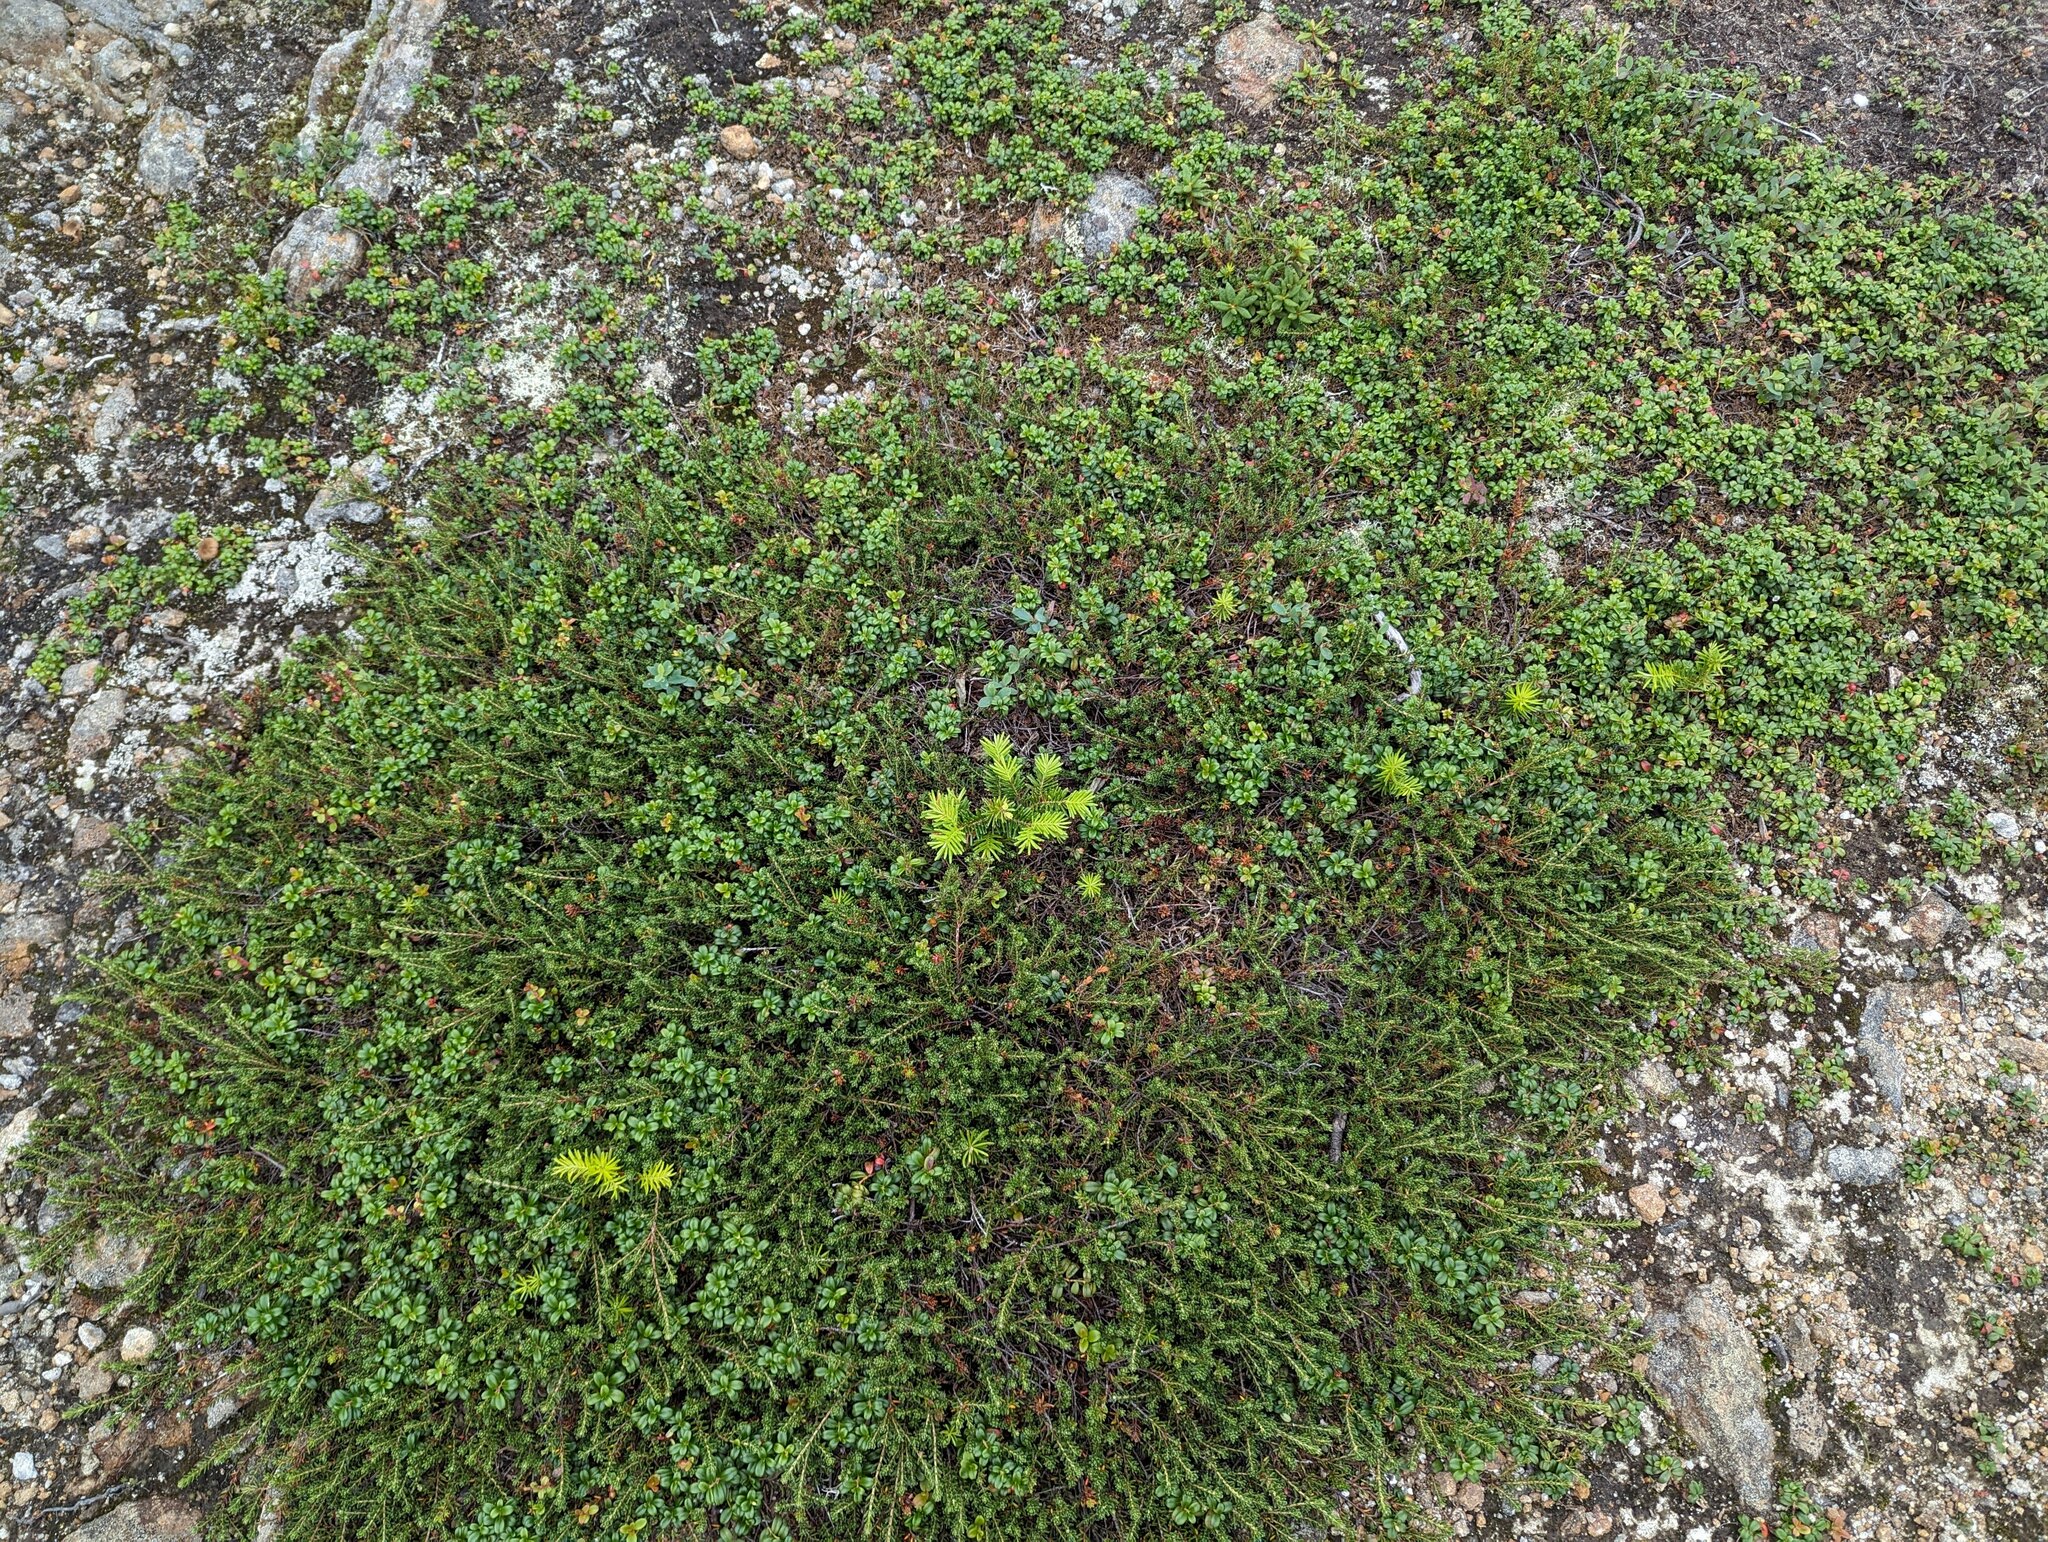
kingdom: Plantae
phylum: Tracheophyta
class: Magnoliopsida
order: Ericales
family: Ericaceae
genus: Empetrum
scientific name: Empetrum nigrum
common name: Black crowberry
